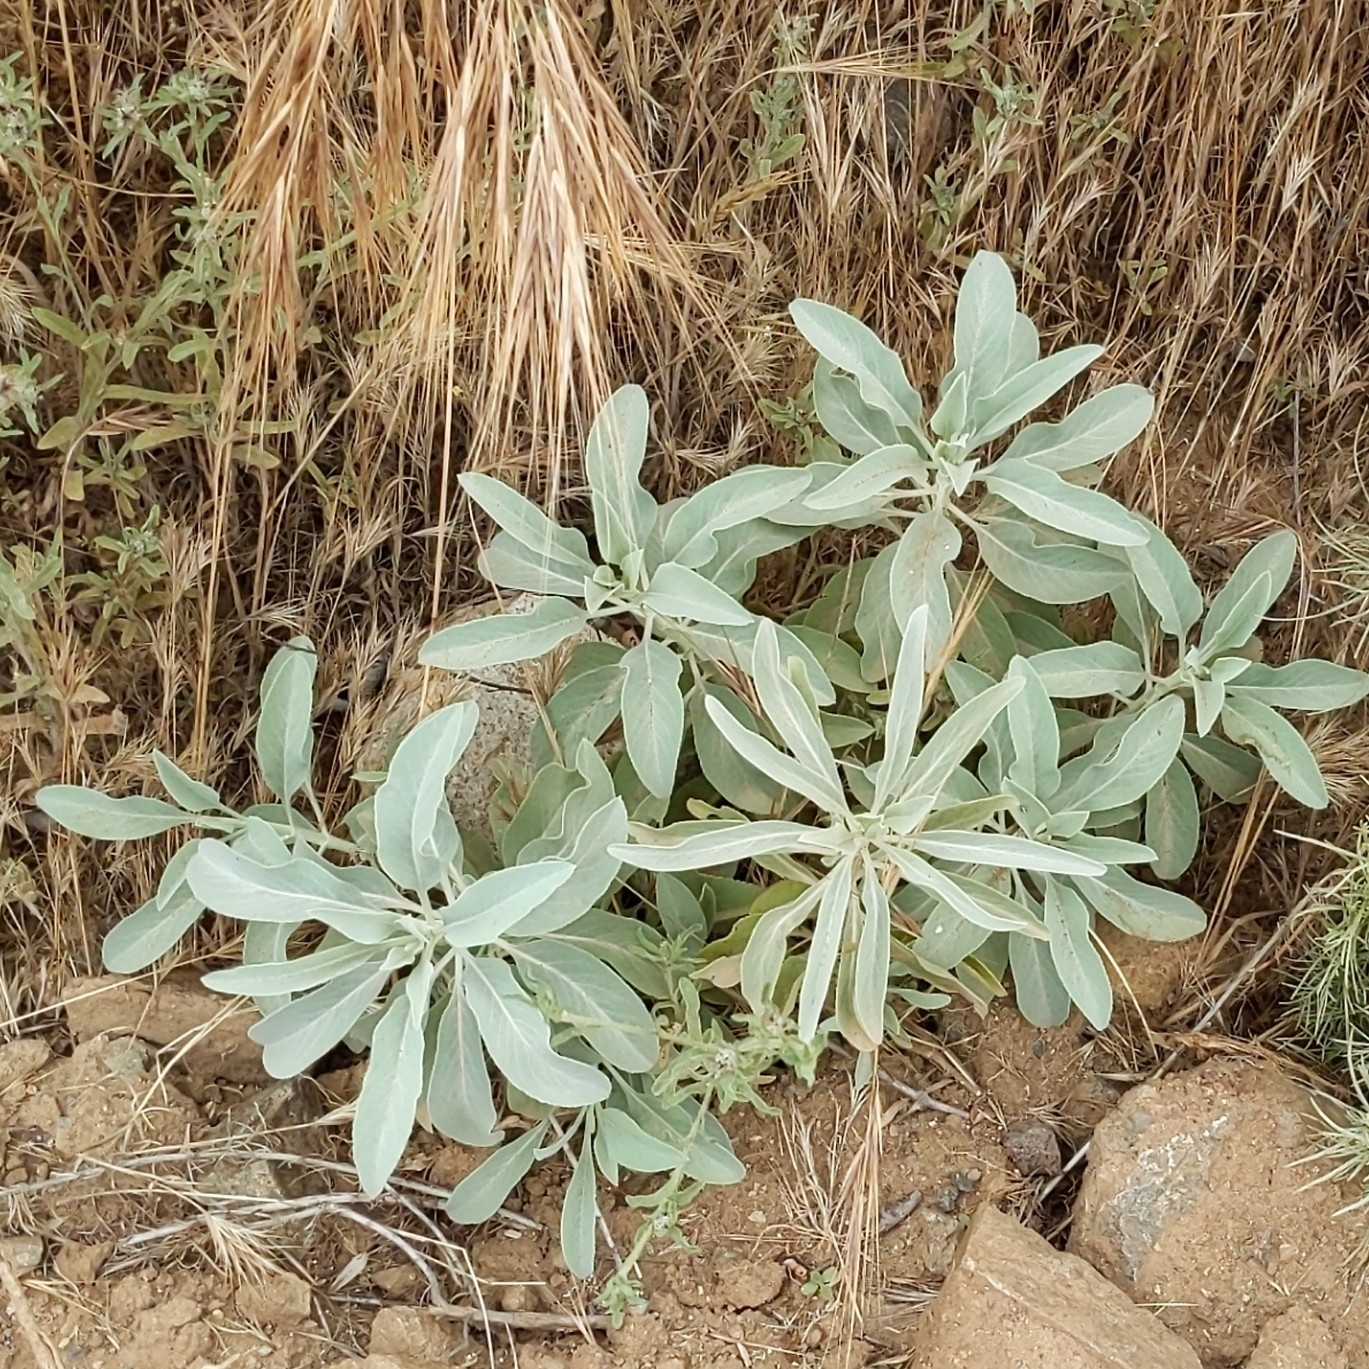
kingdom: Plantae
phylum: Tracheophyta
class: Magnoliopsida
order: Lamiales
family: Lamiaceae
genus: Salvia
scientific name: Salvia apiana
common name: White sage
